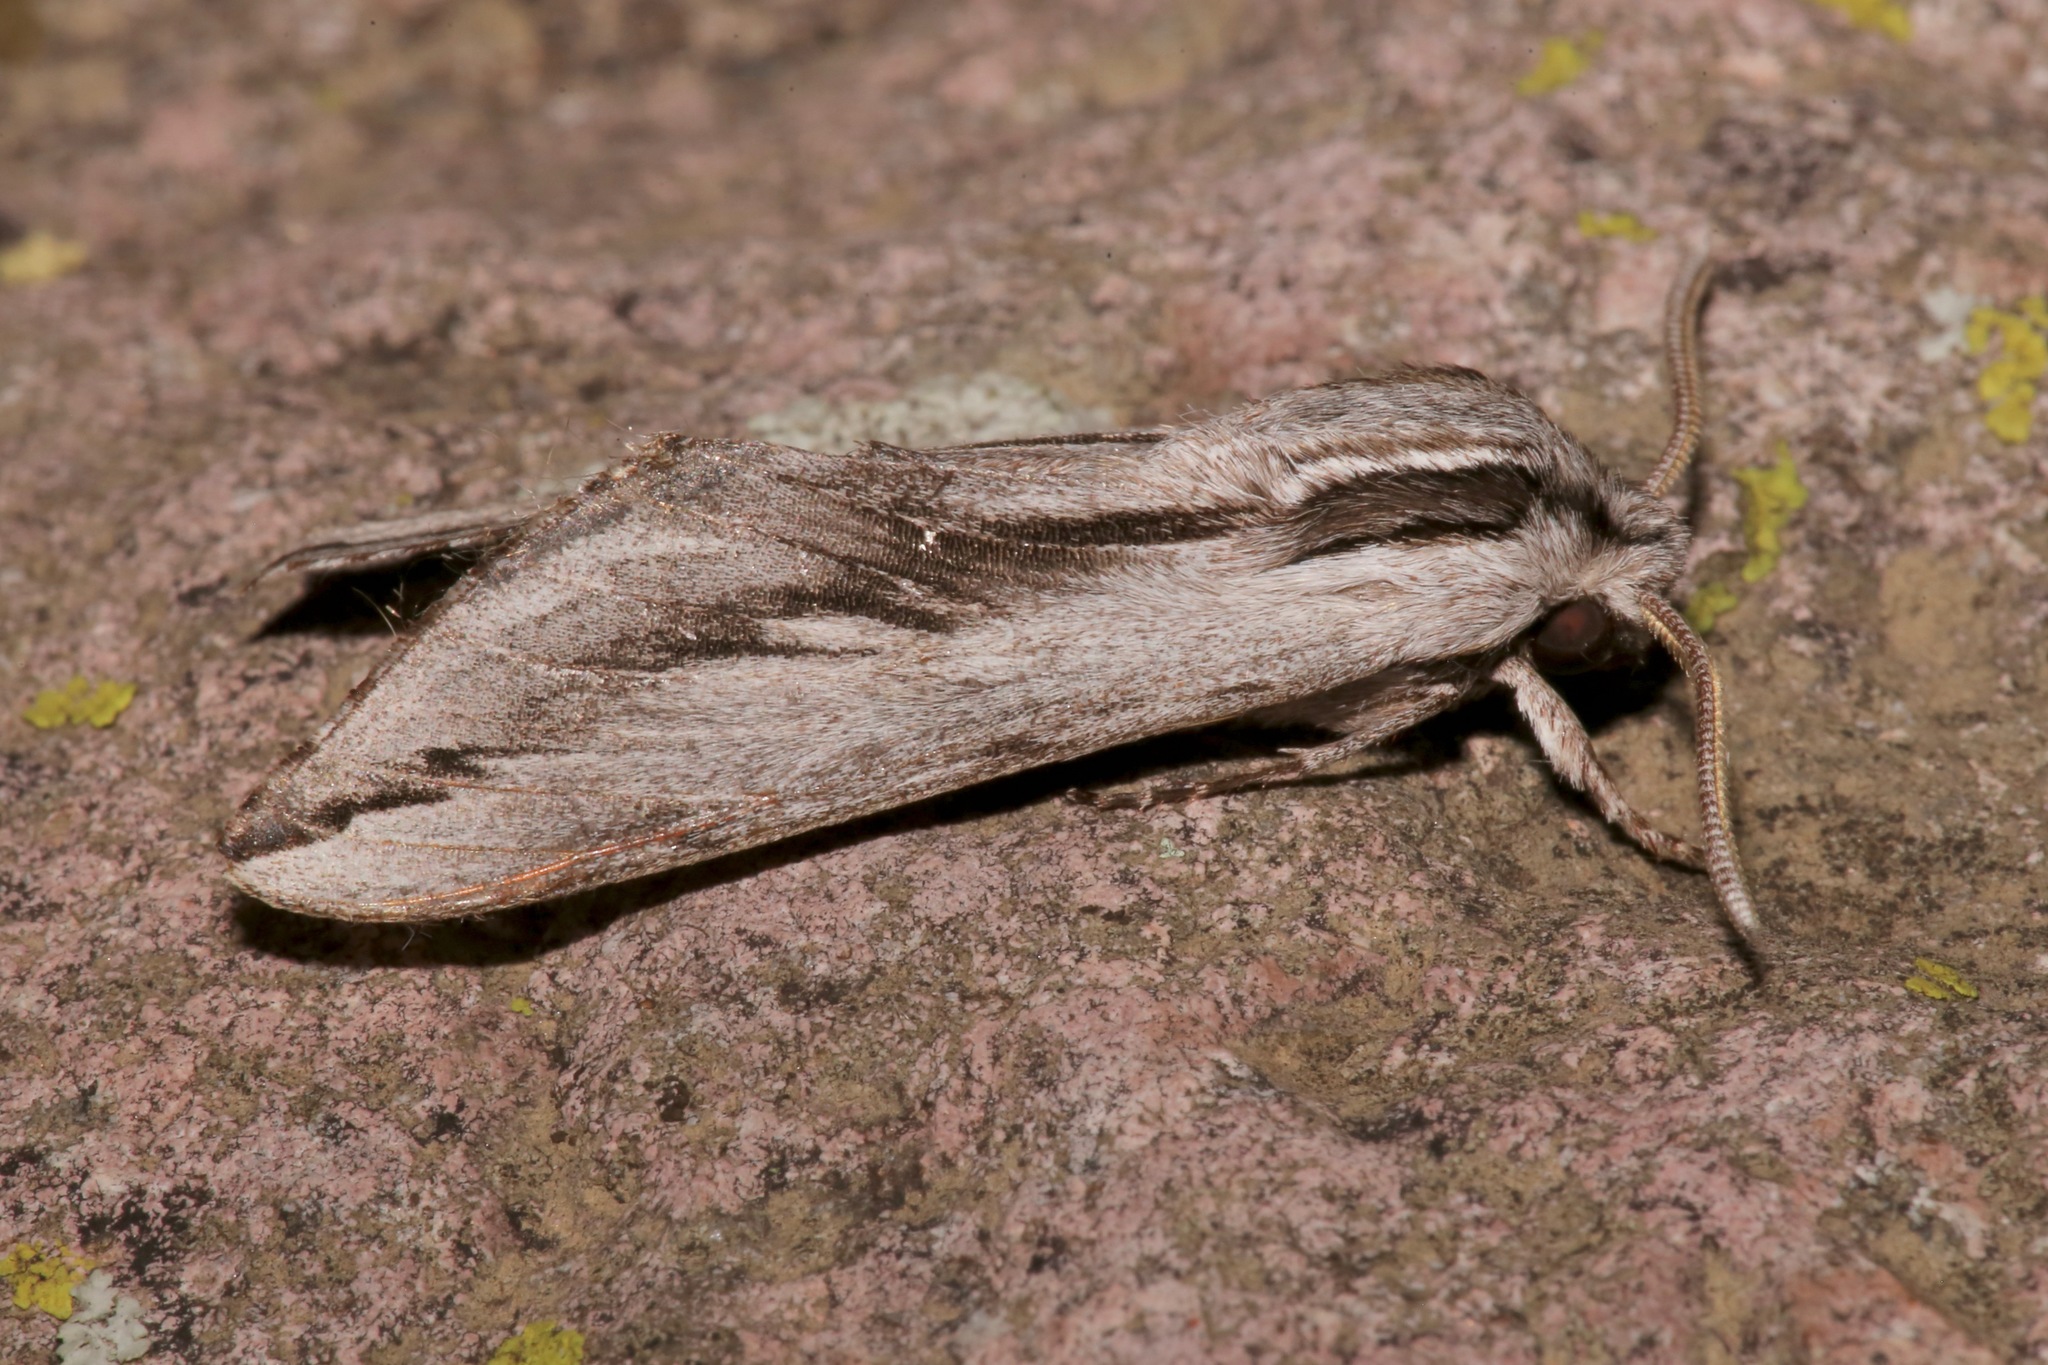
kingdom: Animalia
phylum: Arthropoda
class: Insecta
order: Lepidoptera
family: Sphingidae
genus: Sphinx
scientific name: Sphinx dollii
